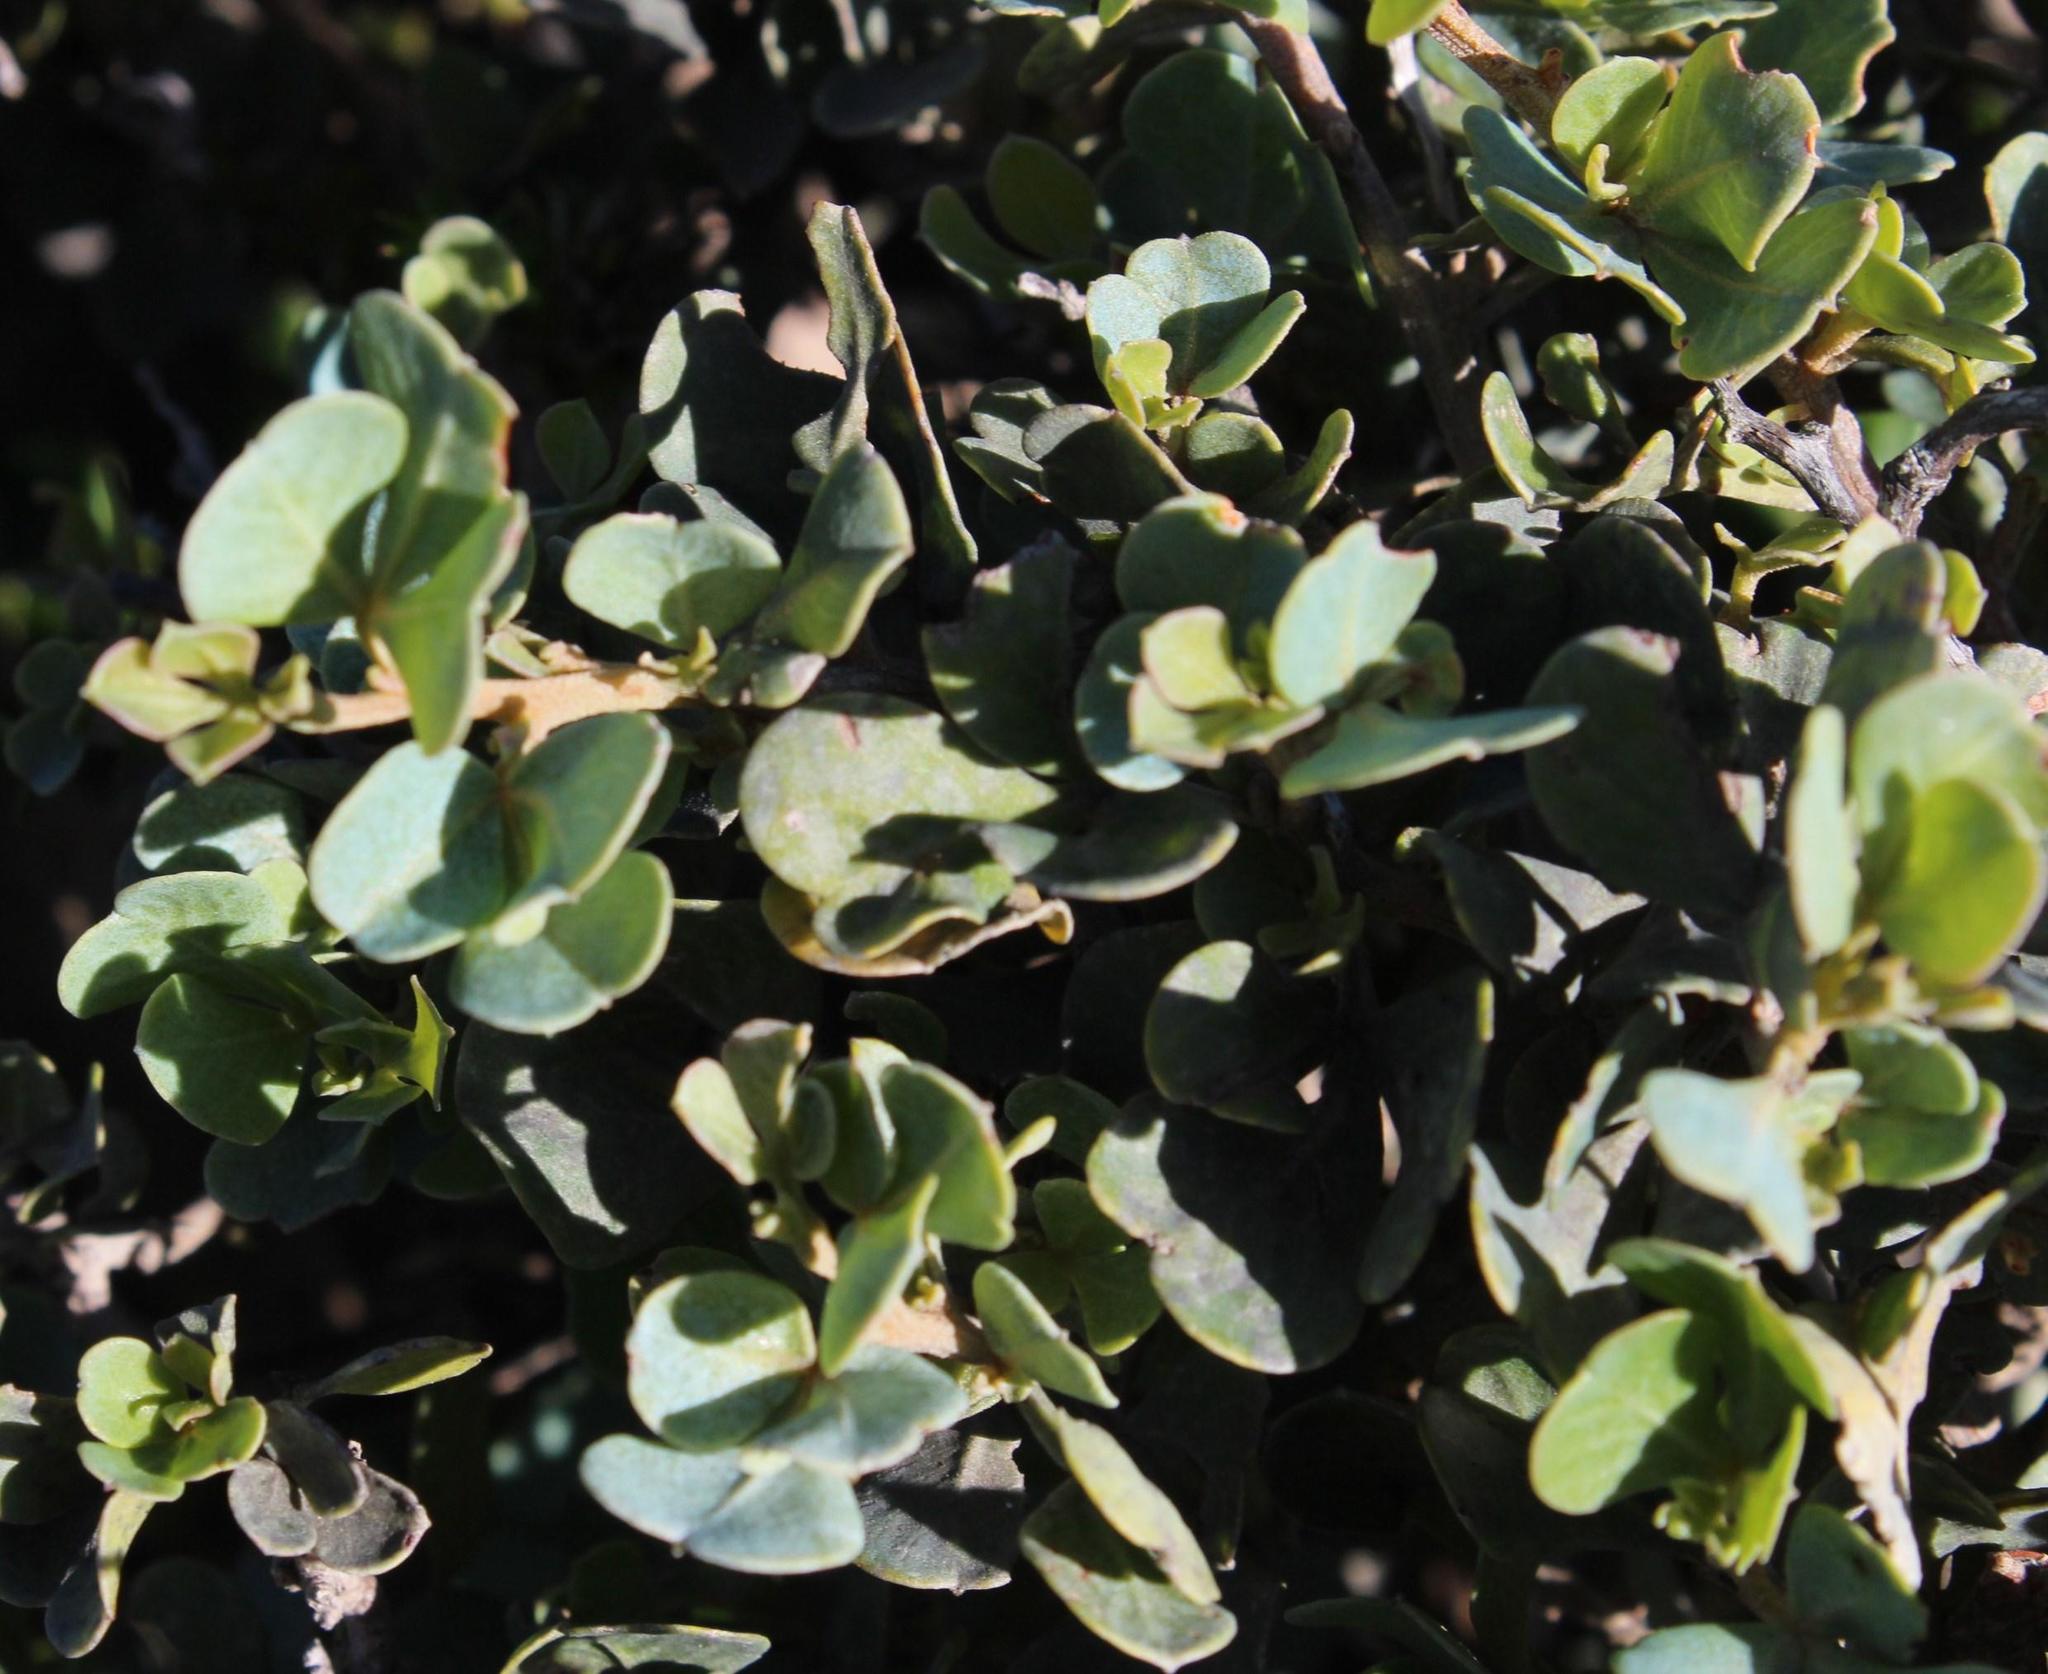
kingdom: Plantae
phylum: Tracheophyta
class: Magnoliopsida
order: Sapindales
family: Anacardiaceae
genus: Searsia
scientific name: Searsia glauca
